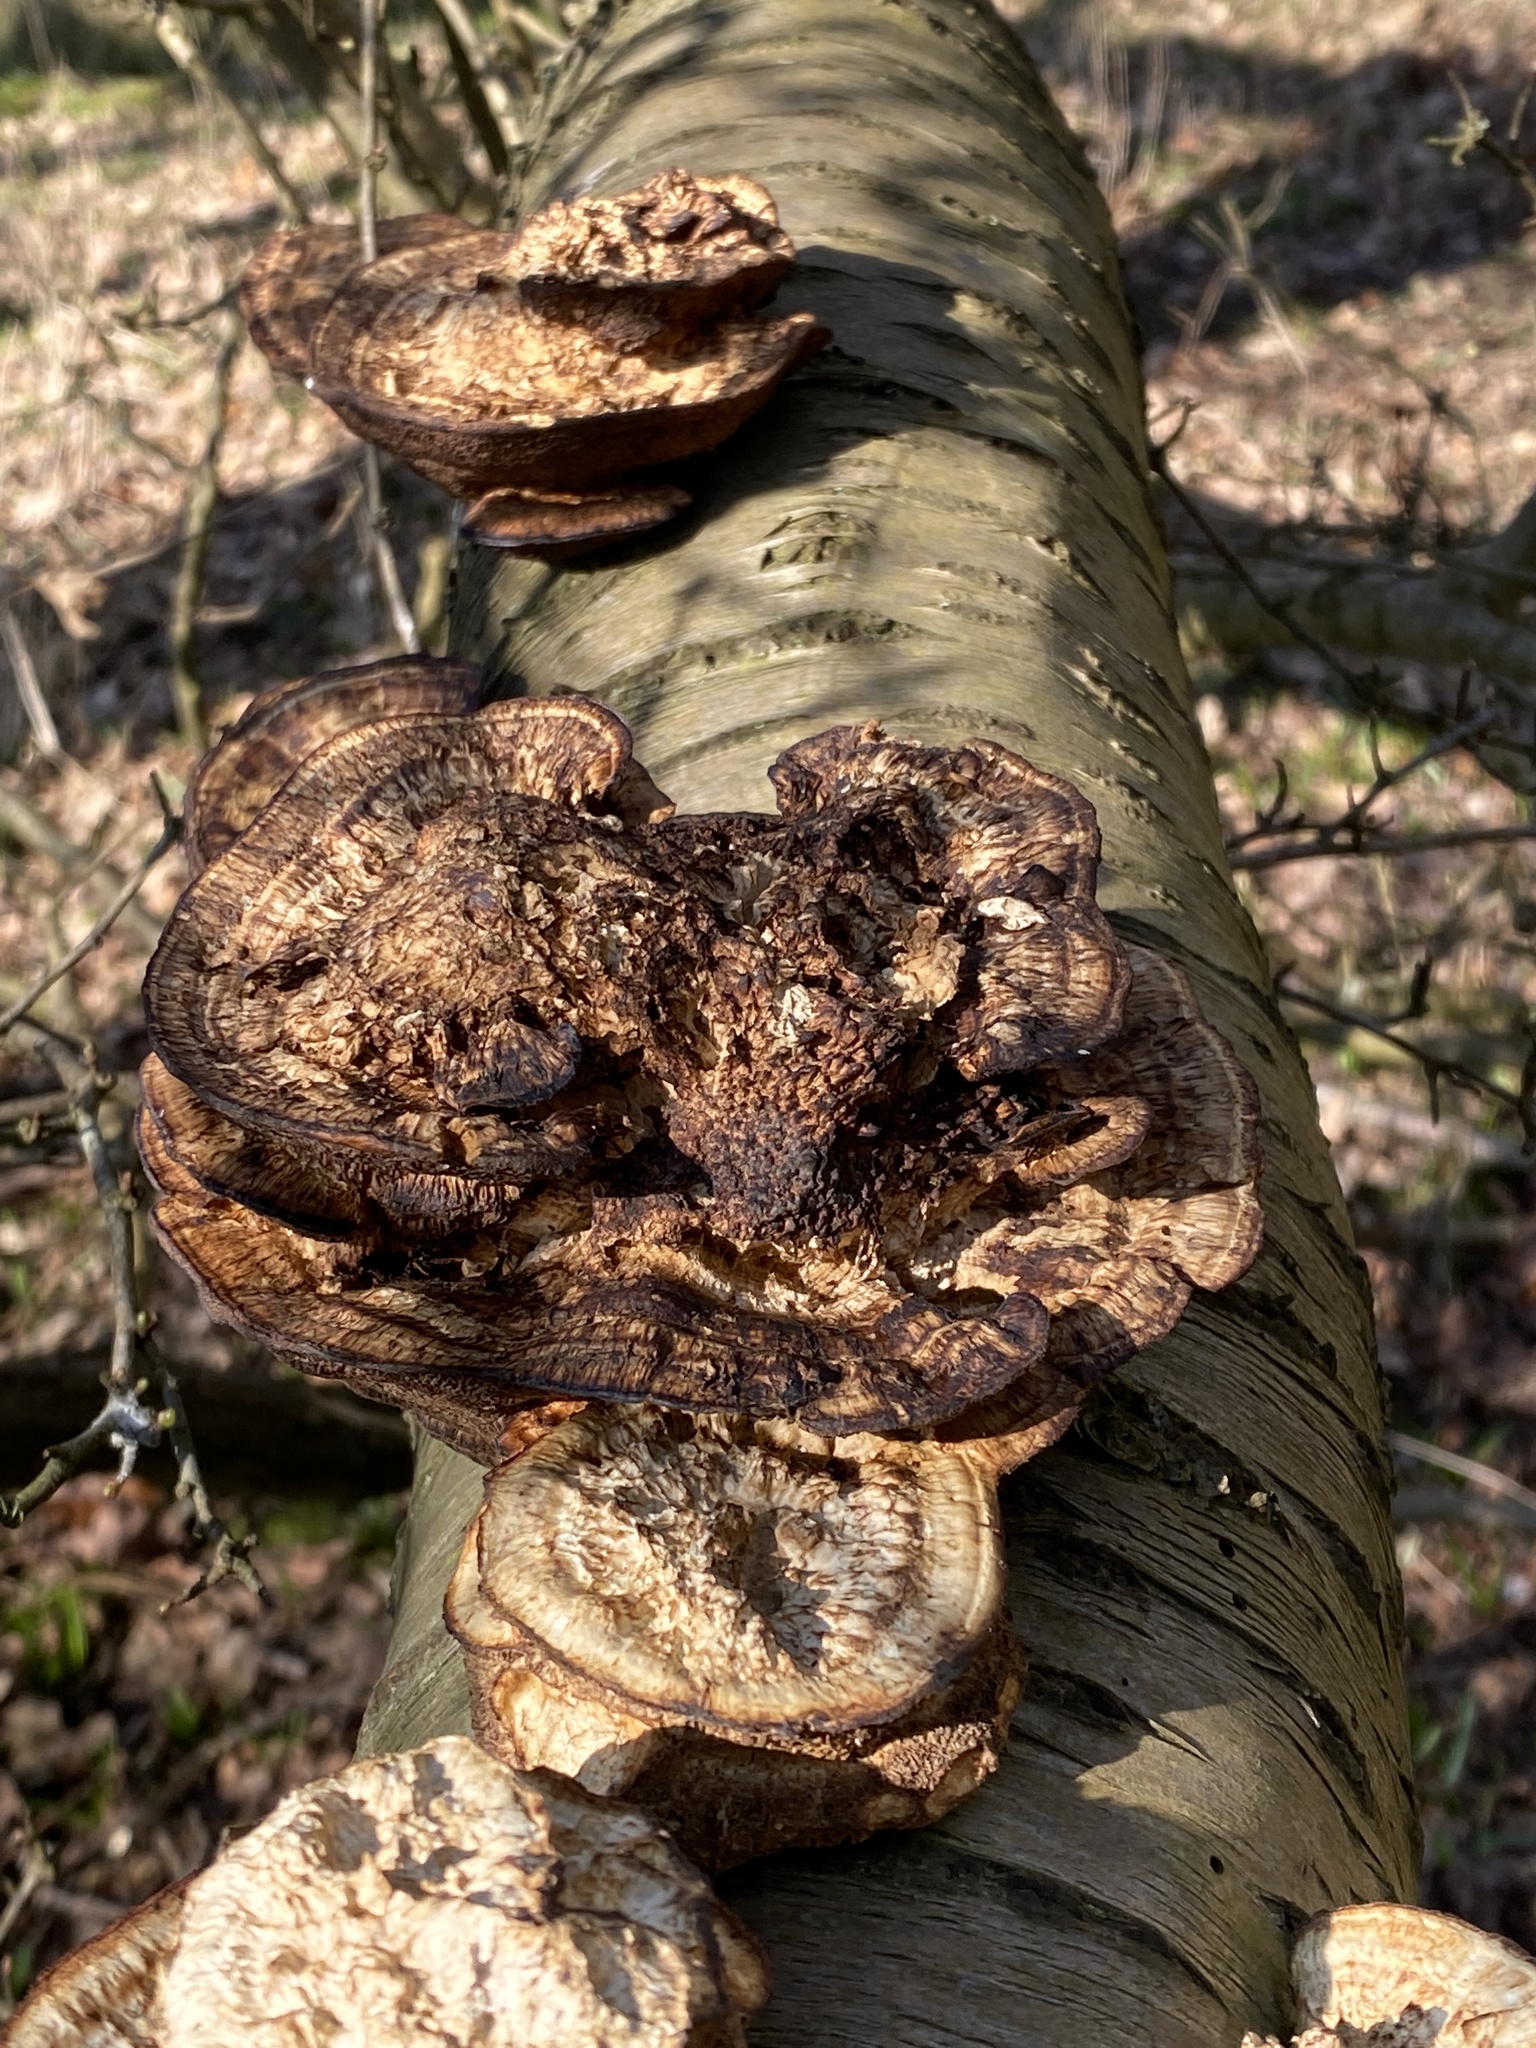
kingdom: Fungi
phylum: Basidiomycota
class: Agaricomycetes
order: Polyporales
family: Polyporaceae
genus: Daedaleopsis
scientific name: Daedaleopsis confragosa
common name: Blushing bracket
